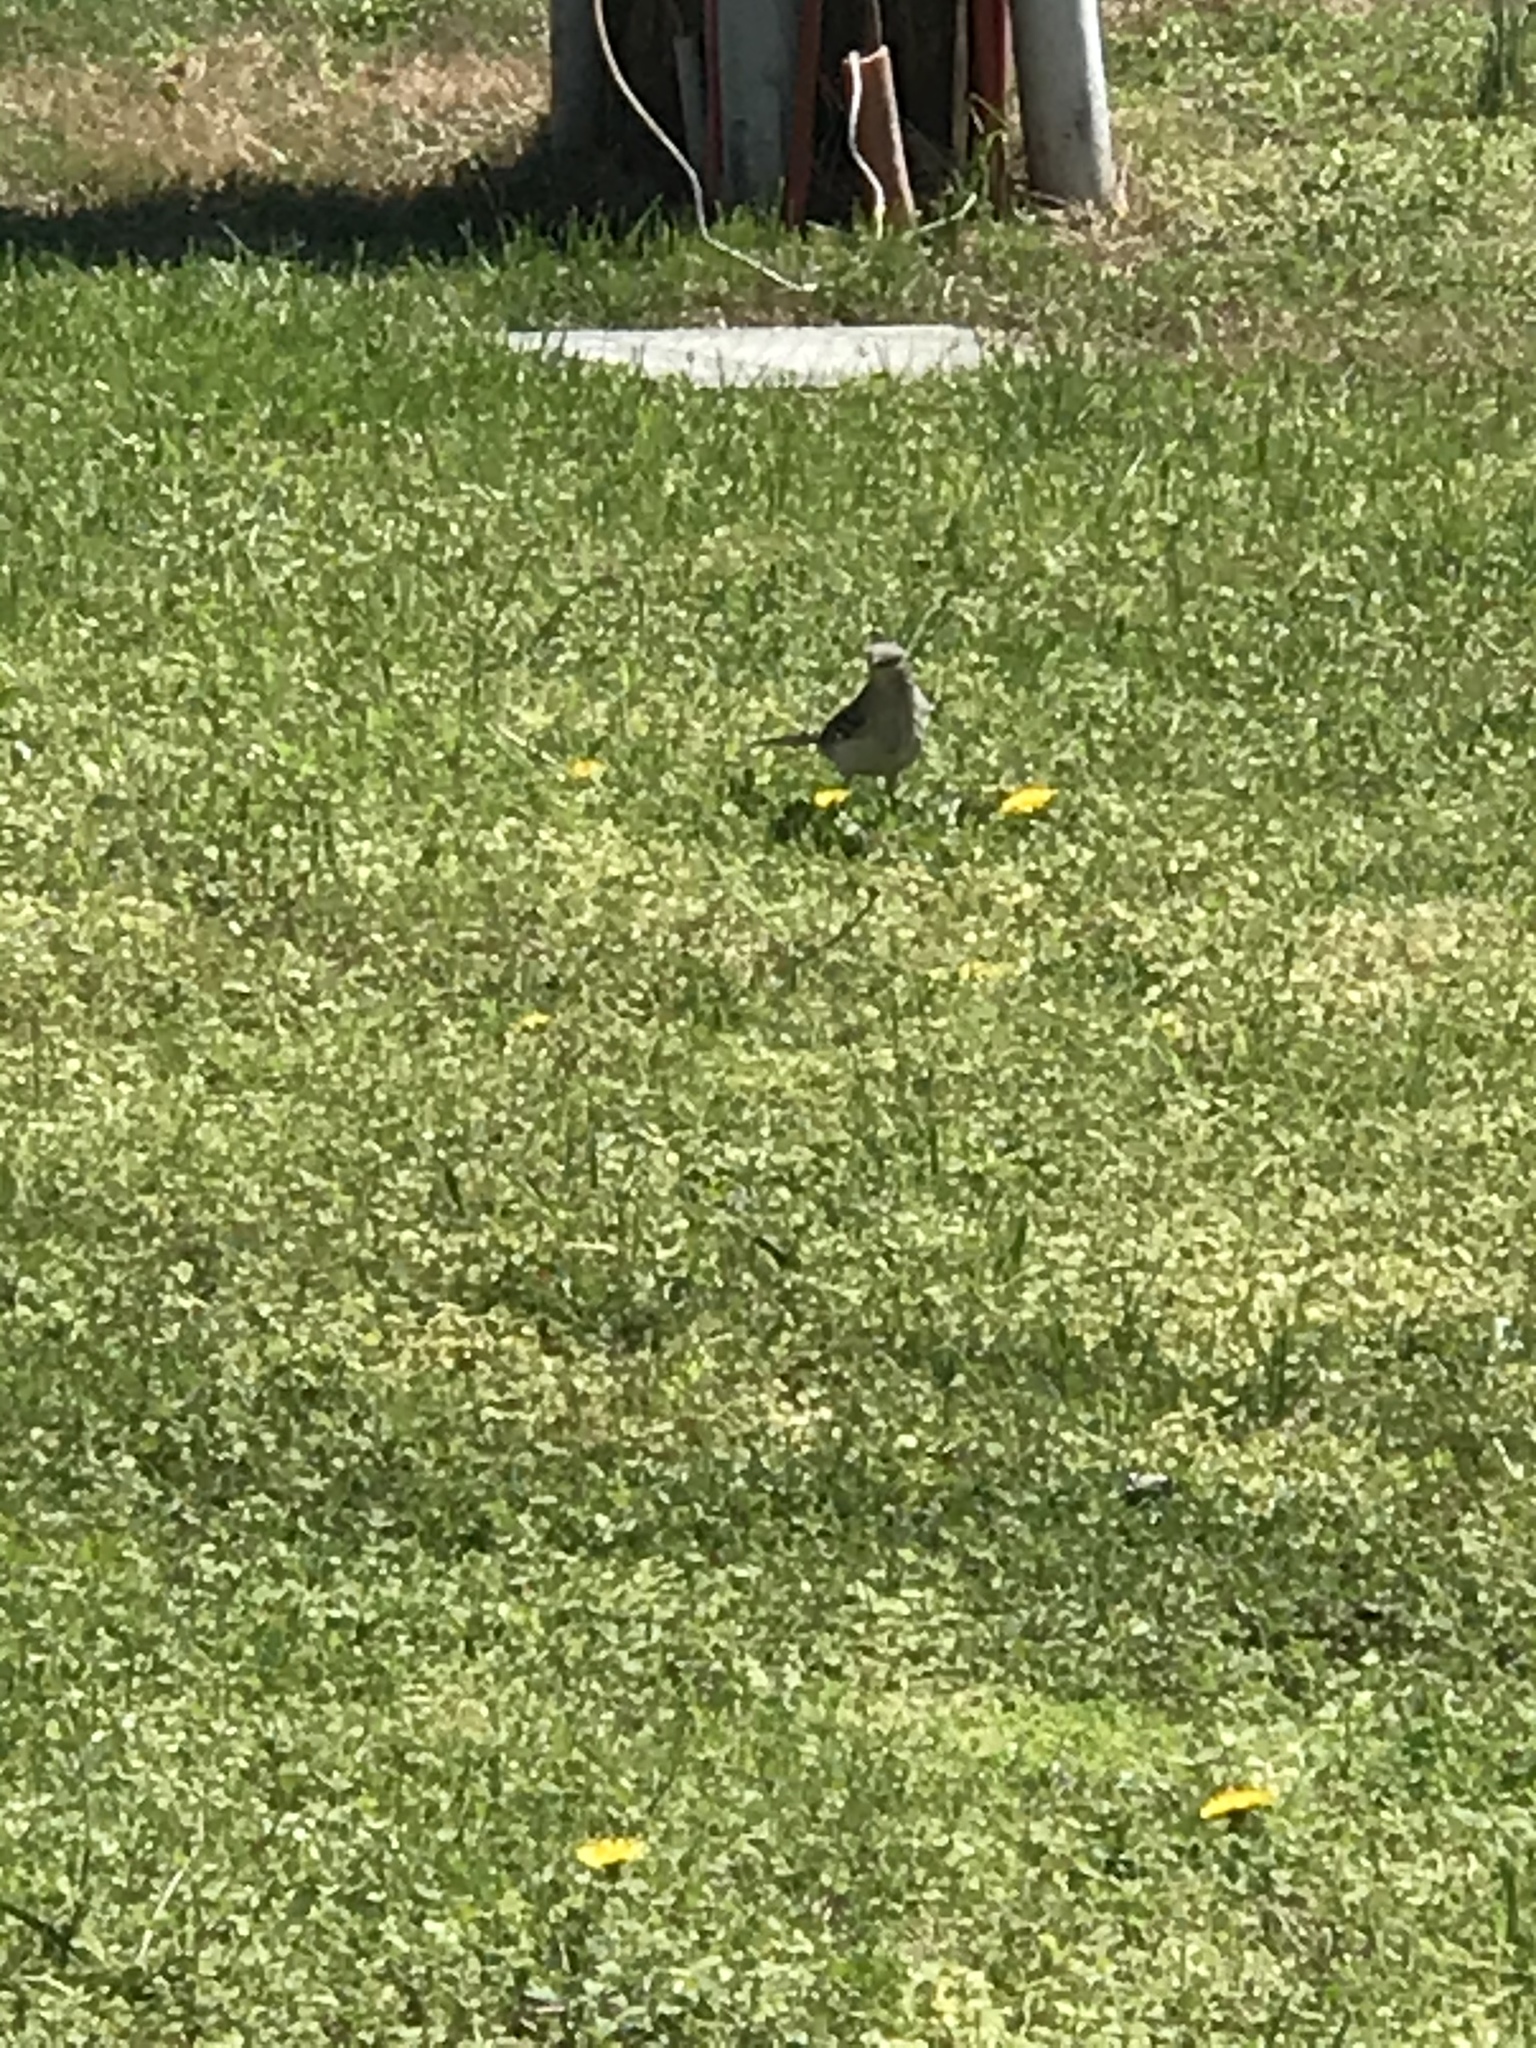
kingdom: Animalia
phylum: Chordata
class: Aves
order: Passeriformes
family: Mimidae
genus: Mimus
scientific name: Mimus polyglottos
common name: Northern mockingbird
